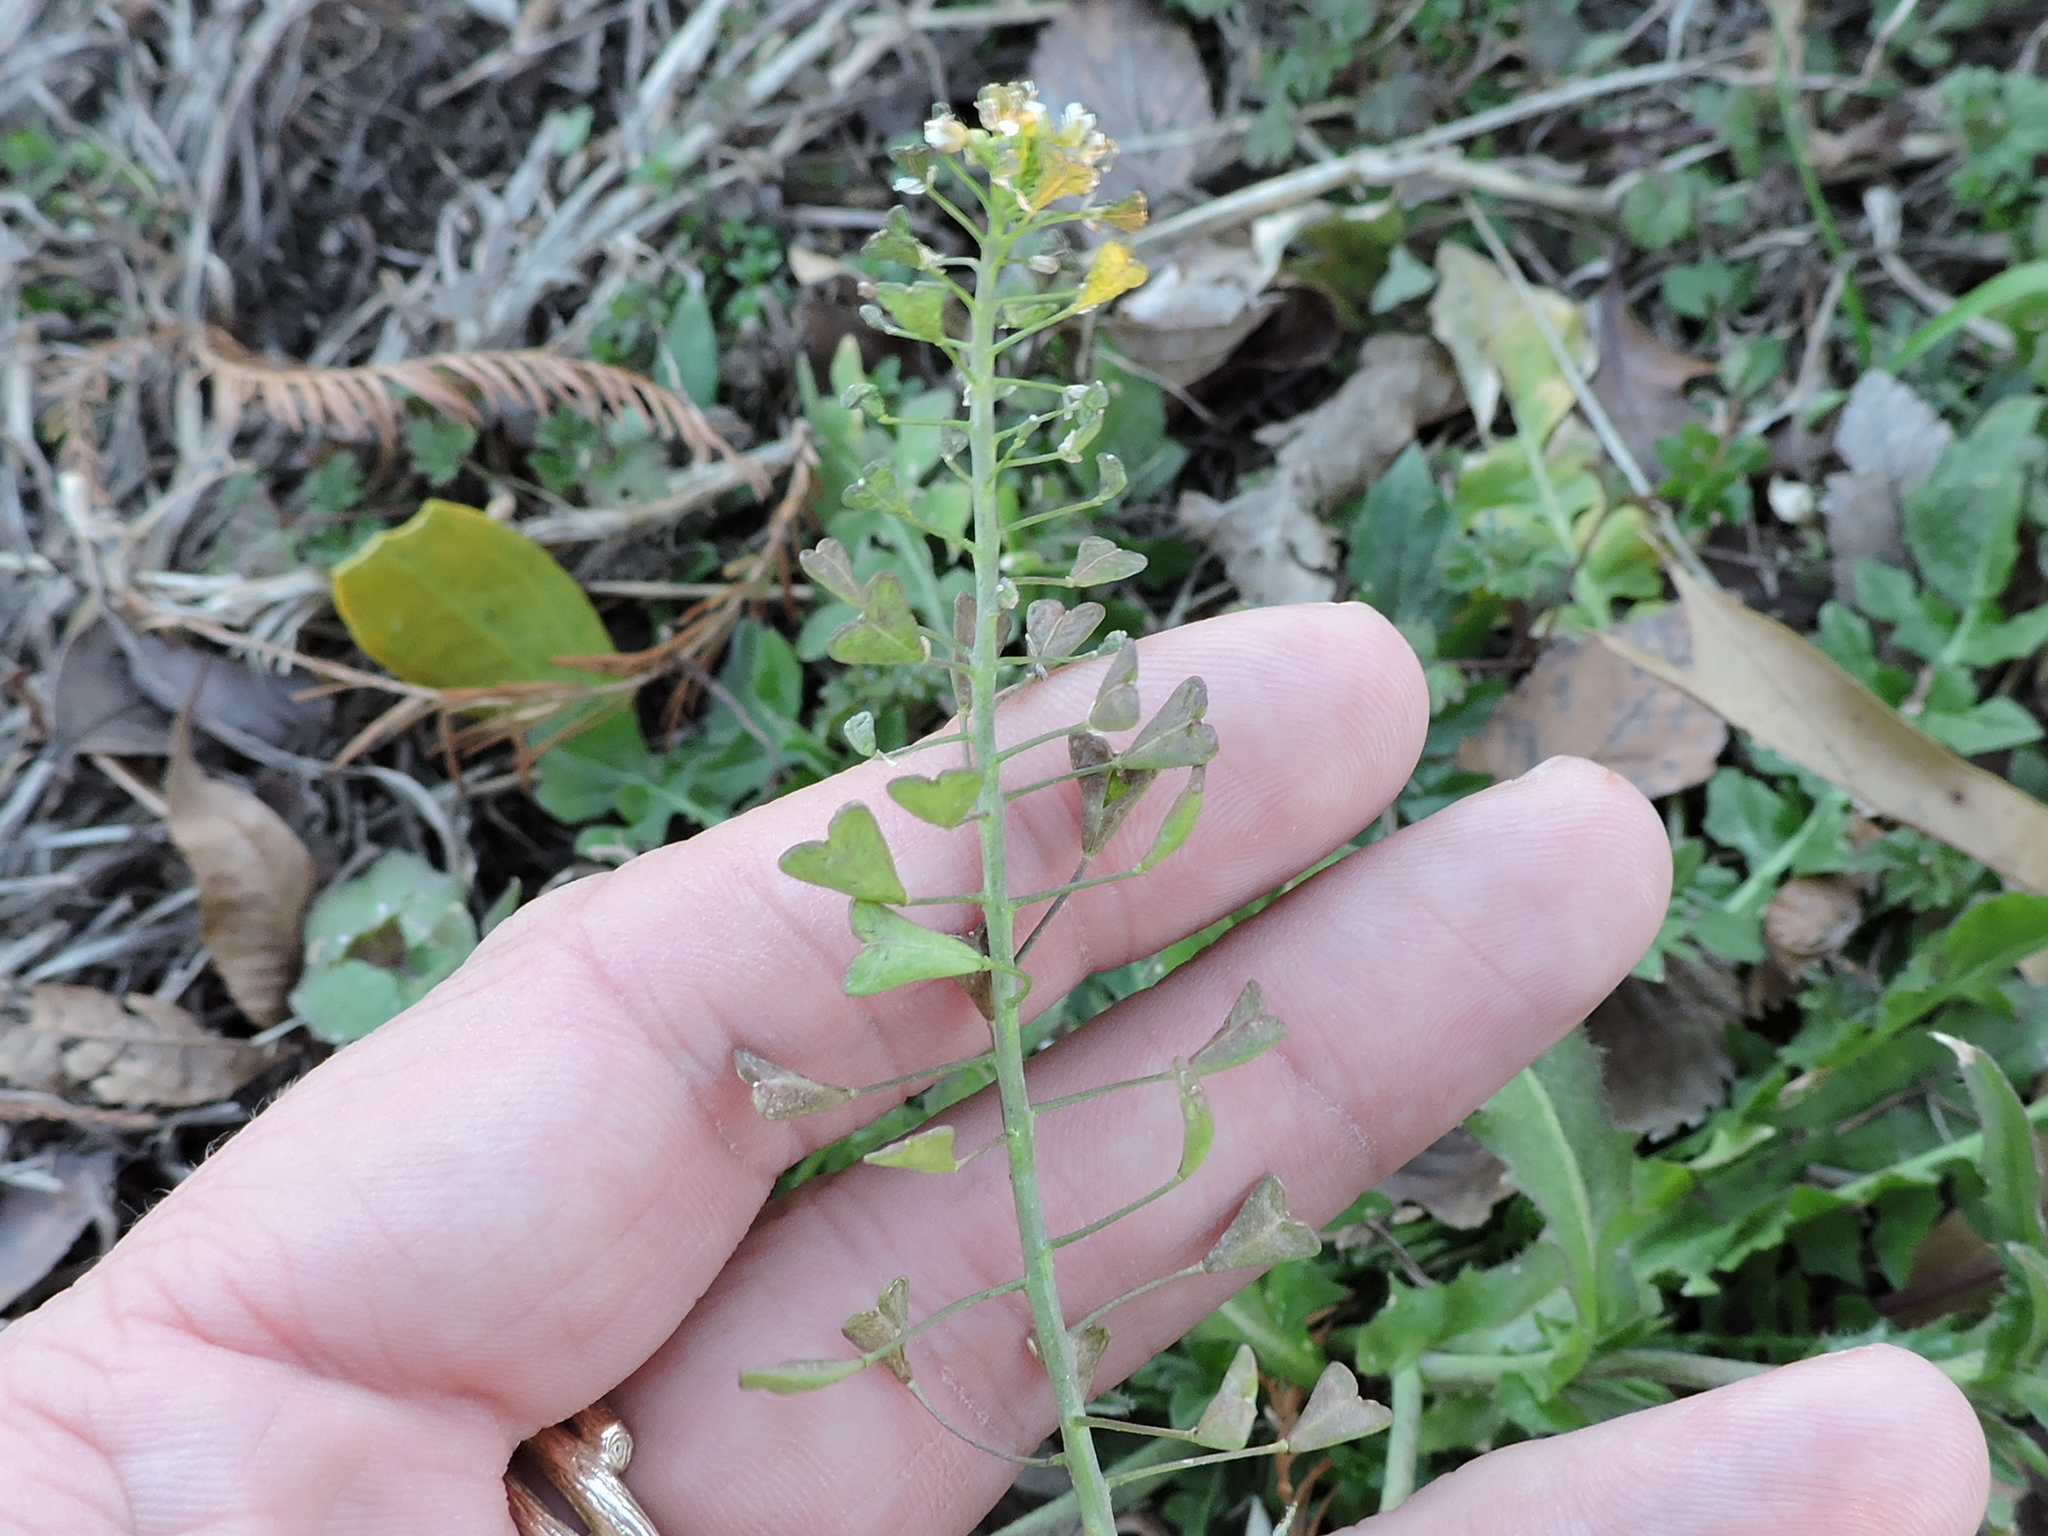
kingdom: Plantae
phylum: Tracheophyta
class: Magnoliopsida
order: Brassicales
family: Brassicaceae
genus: Capsella
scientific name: Capsella bursa-pastoris
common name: Shepherd's purse
